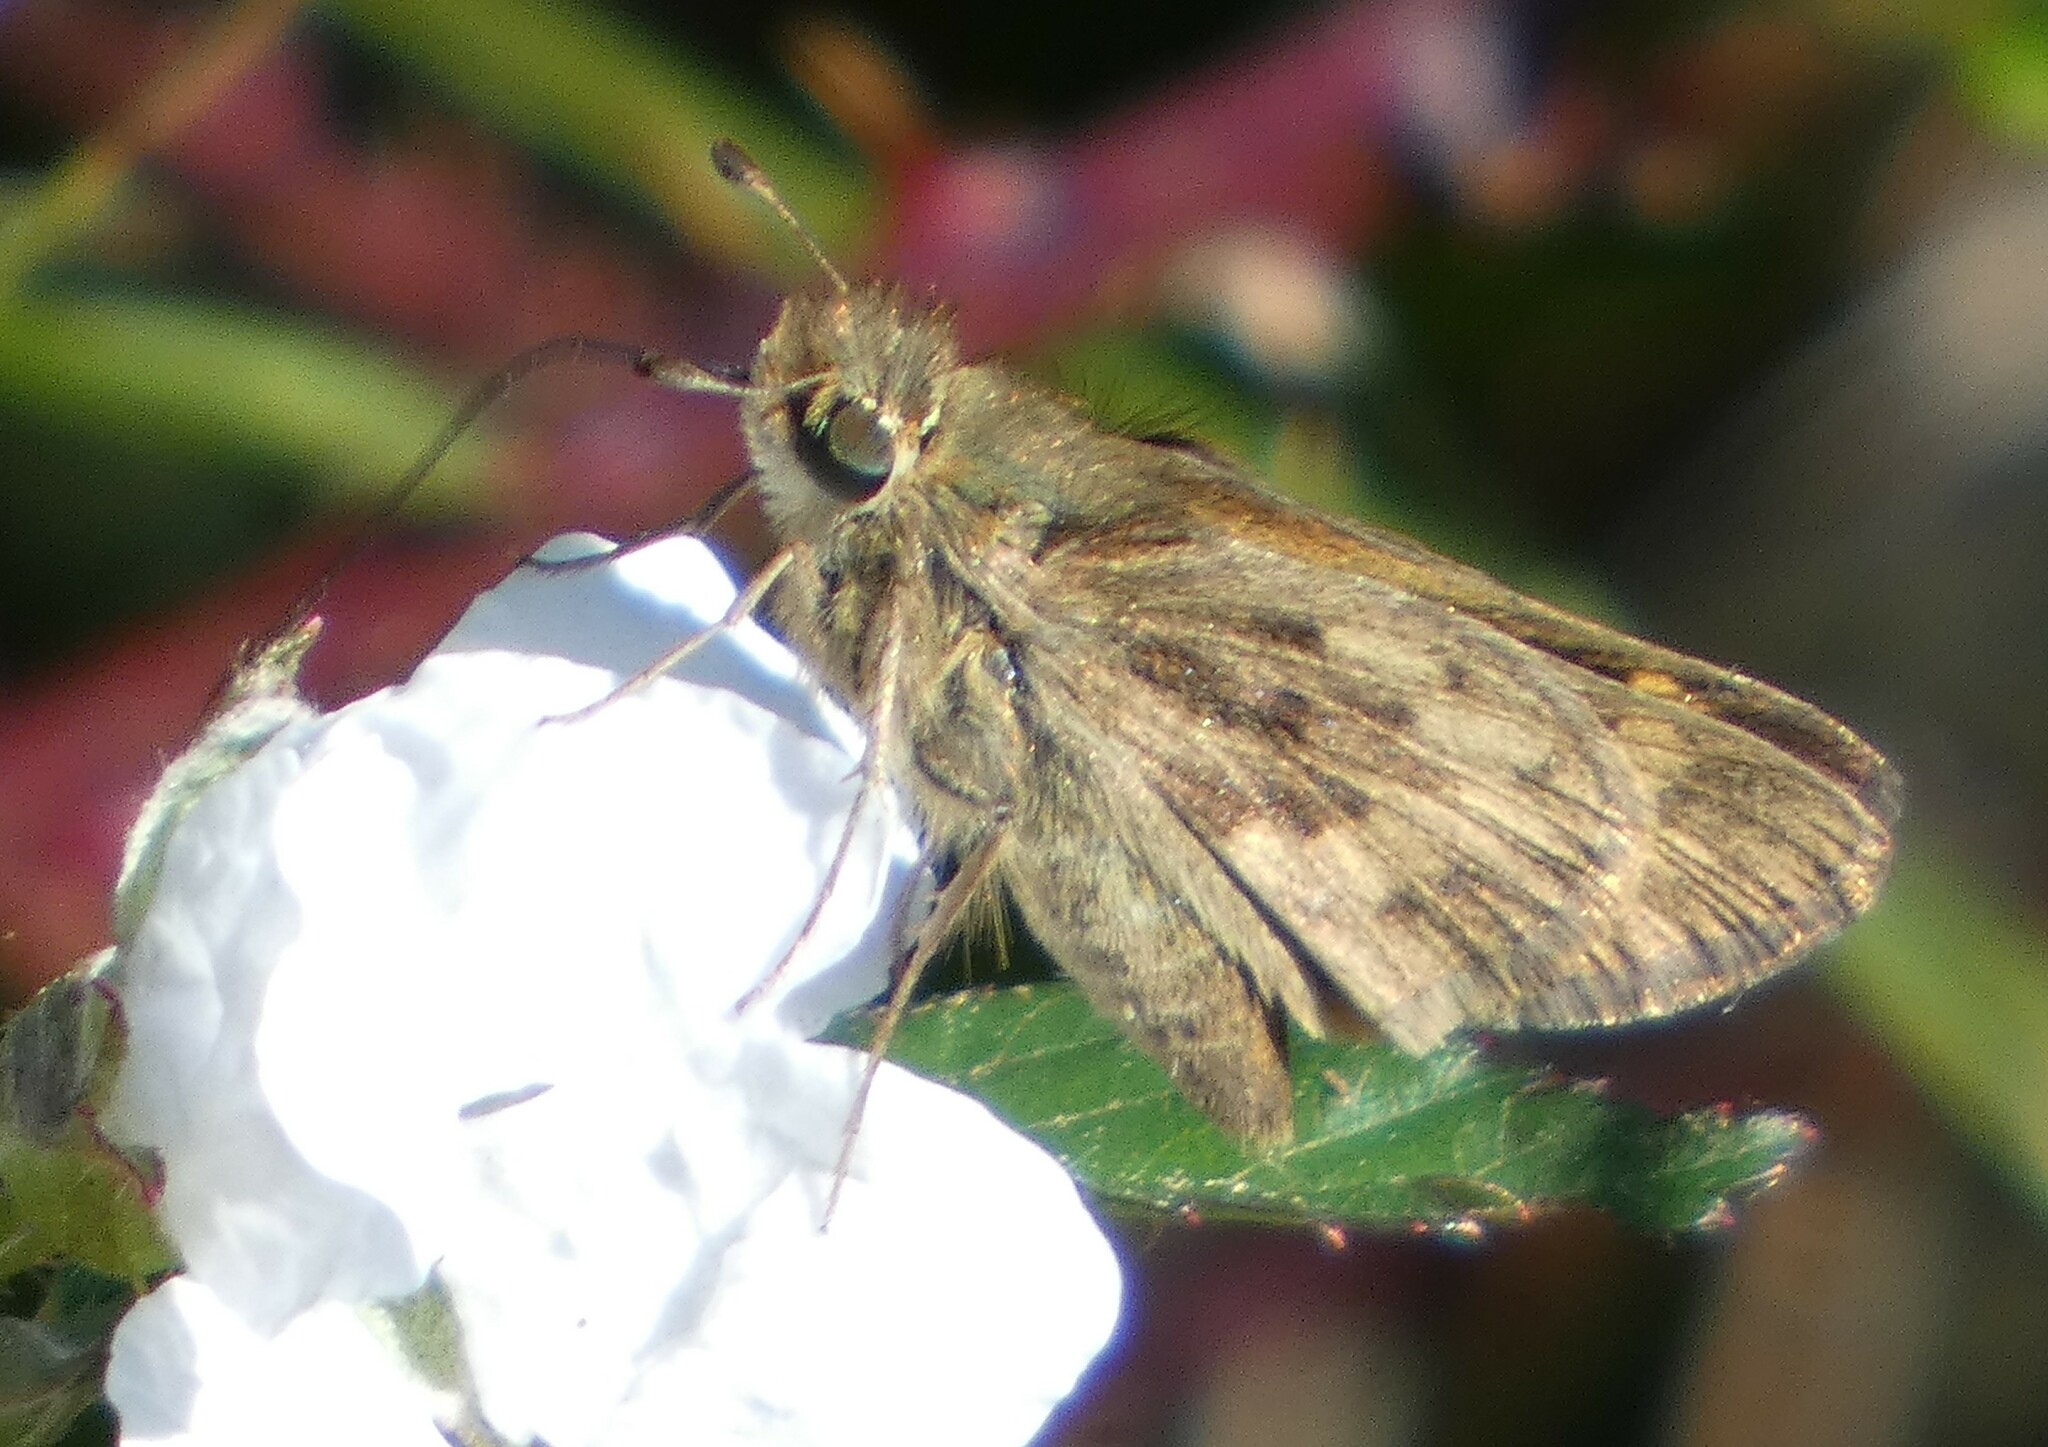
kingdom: Animalia
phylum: Arthropoda
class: Insecta
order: Lepidoptera
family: Hesperiidae
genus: Hylephila
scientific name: Hylephila phyleus
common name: Fiery skipper
